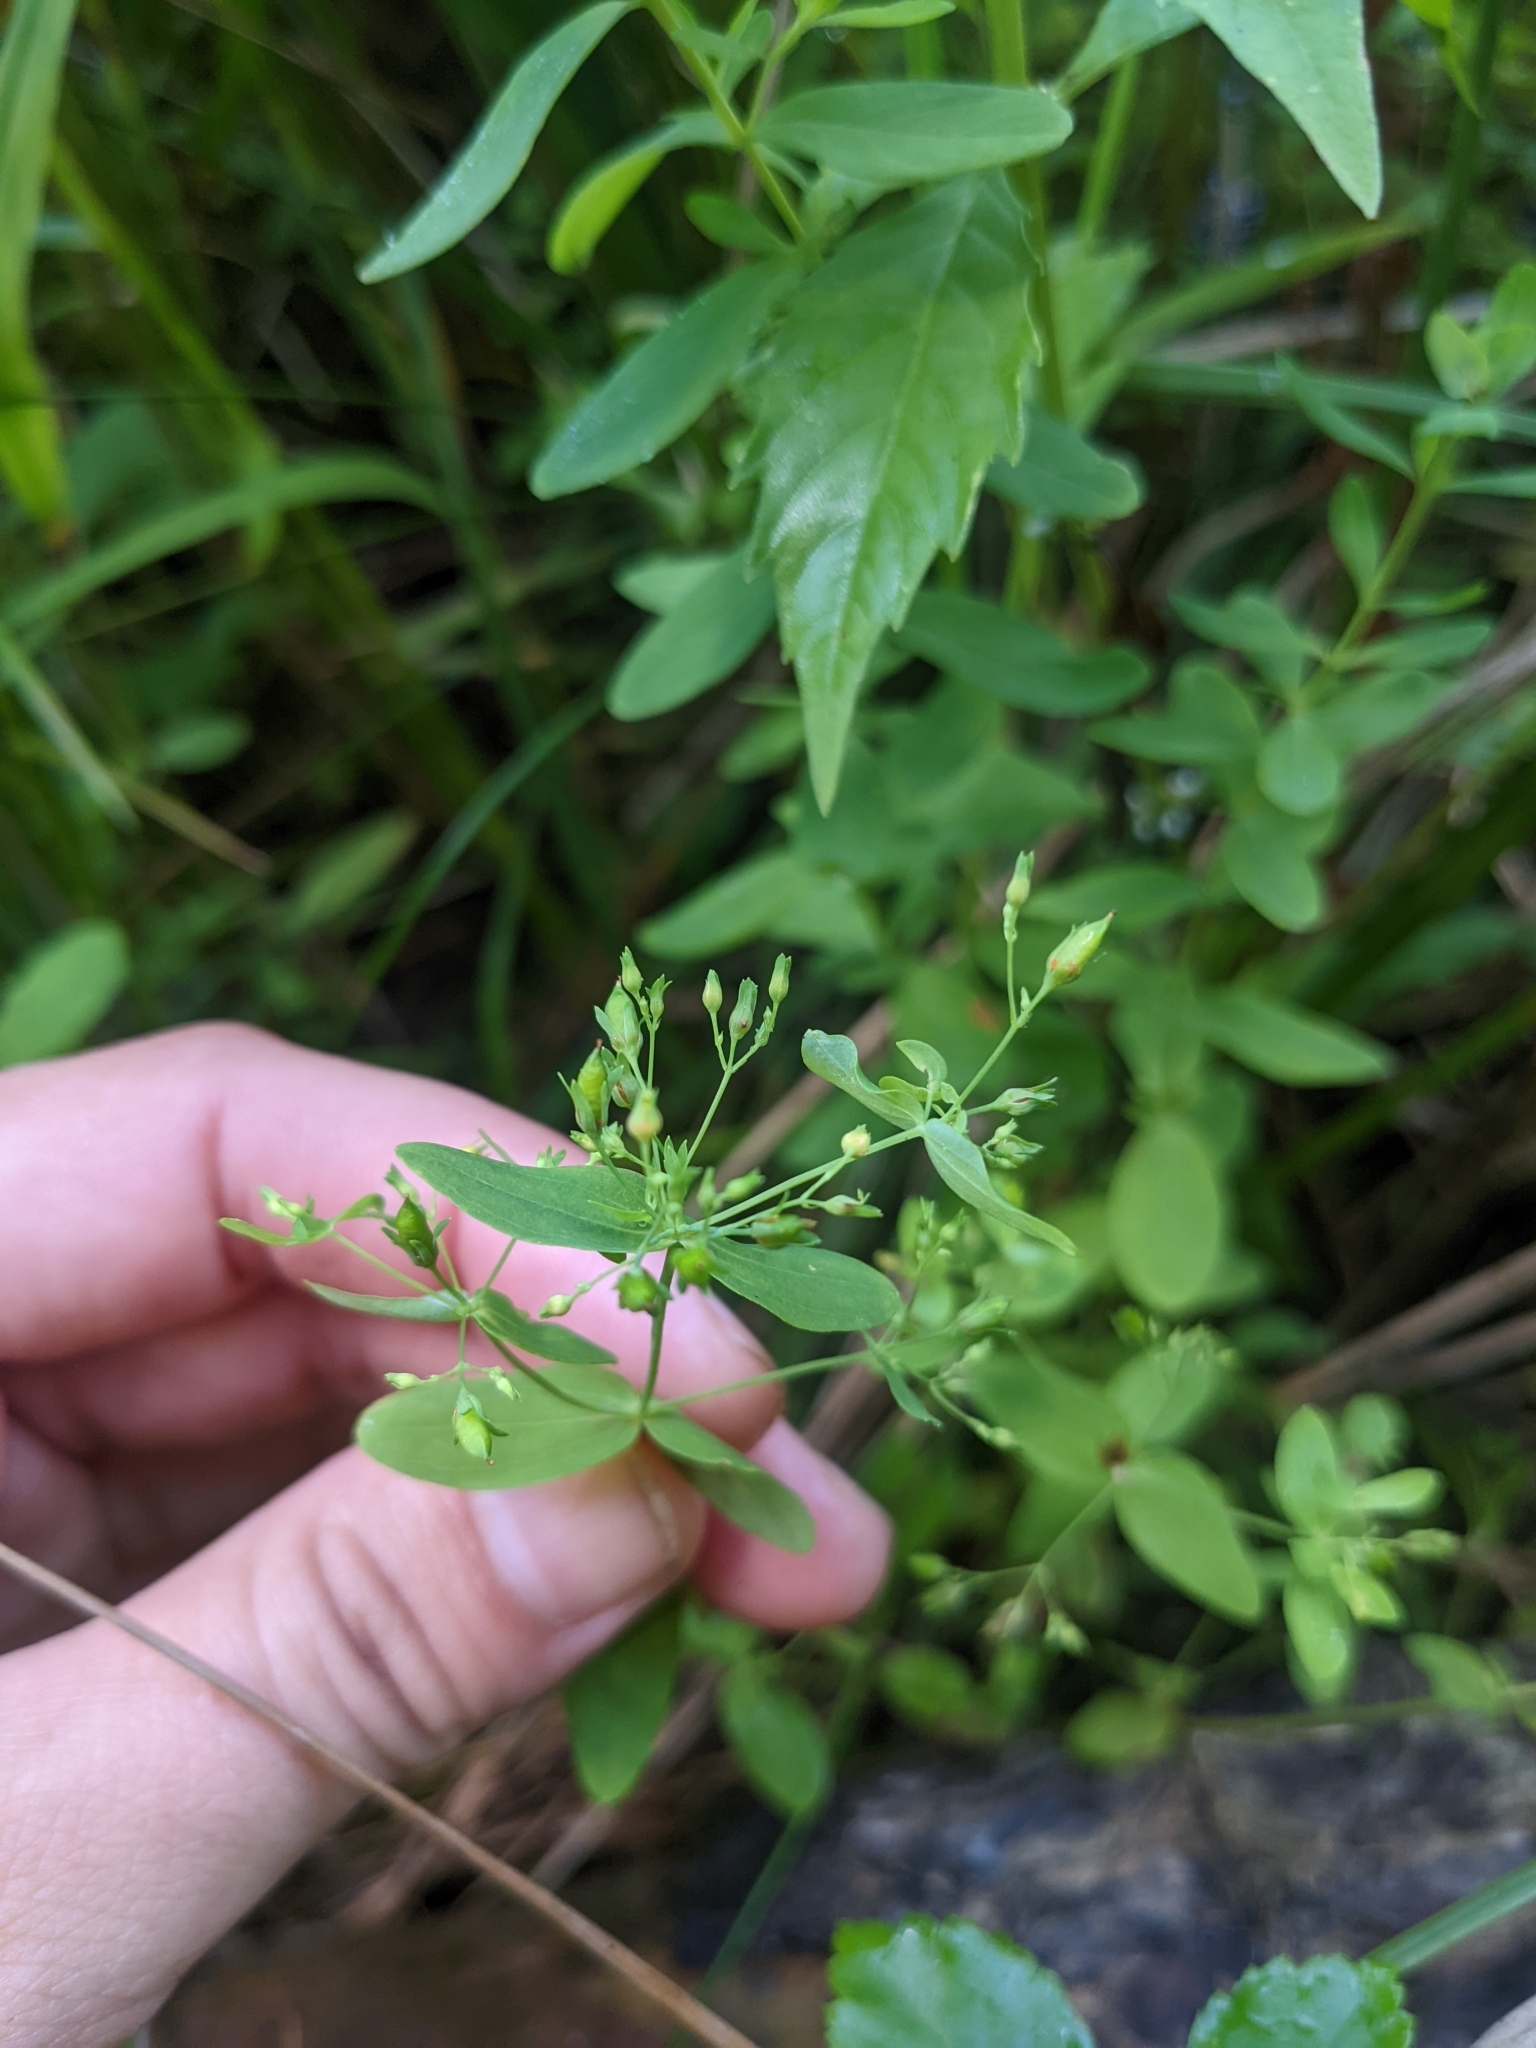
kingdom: Plantae
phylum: Tracheophyta
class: Magnoliopsida
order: Malpighiales
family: Hypericaceae
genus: Hypericum
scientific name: Hypericum mutilum
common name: Dwarf st. john's-wort
